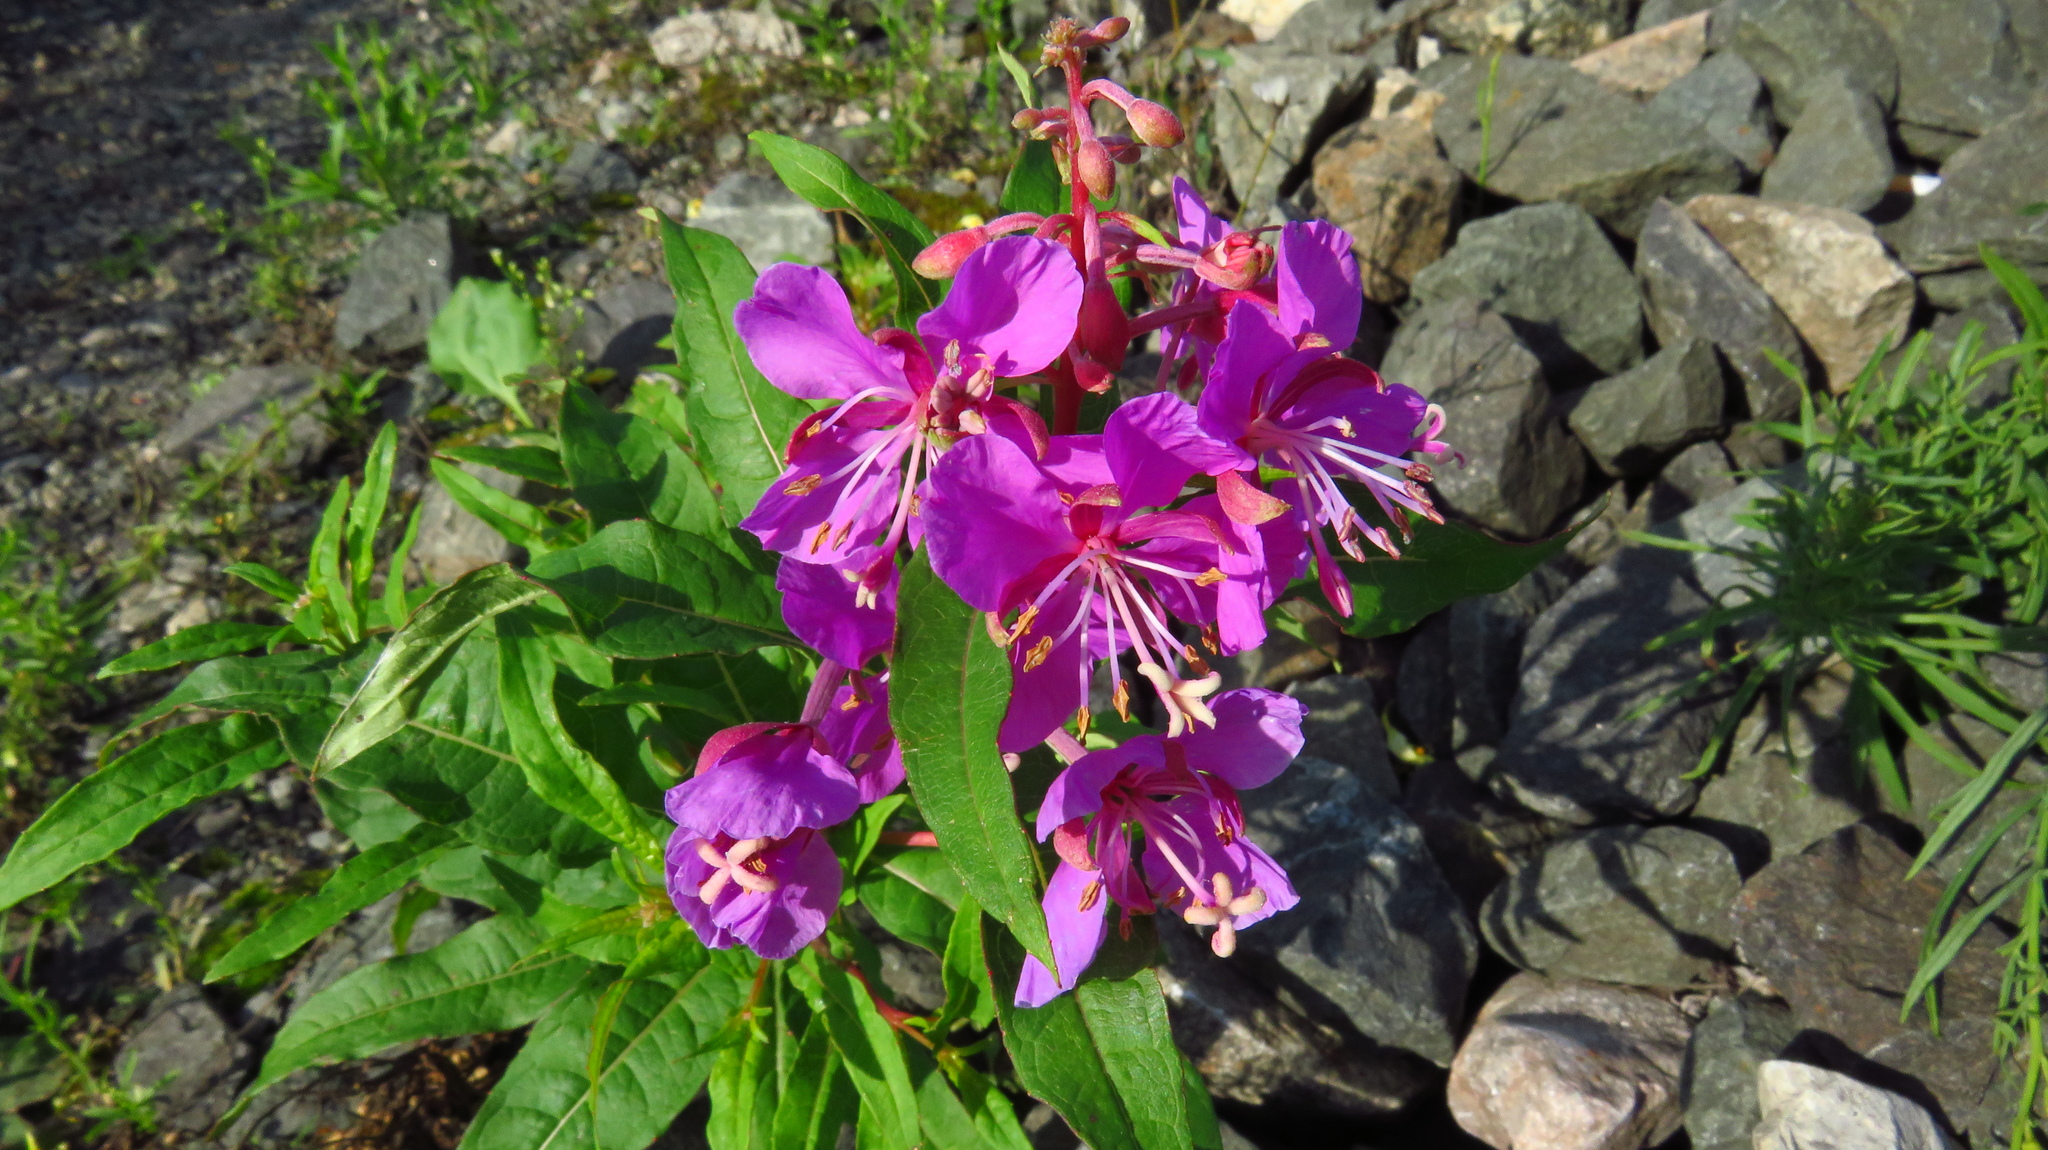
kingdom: Plantae
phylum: Tracheophyta
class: Magnoliopsida
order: Myrtales
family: Onagraceae
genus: Chamaenerion
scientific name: Chamaenerion angustifolium
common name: Fireweed
